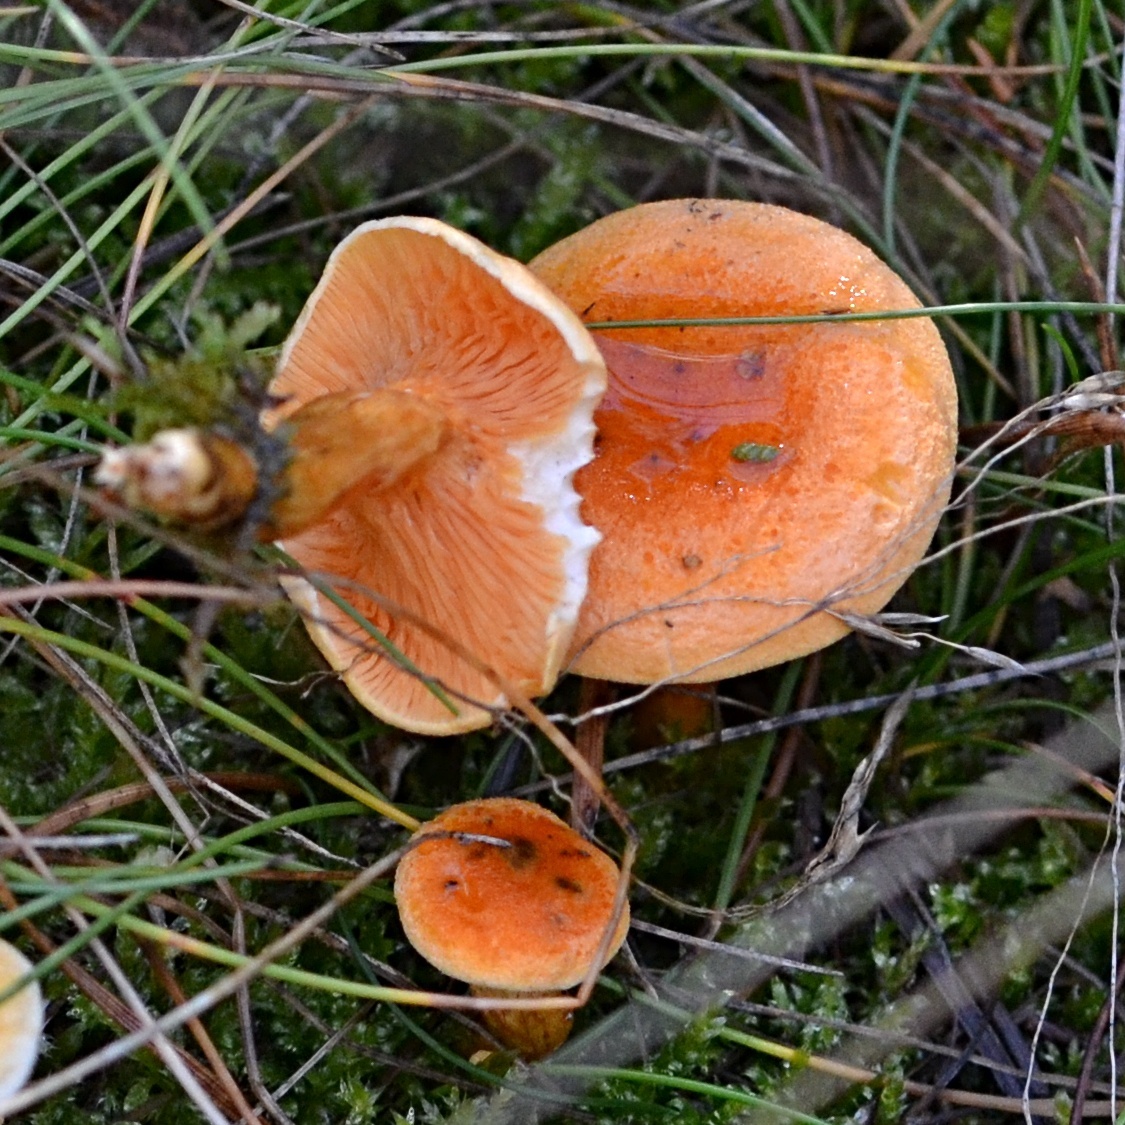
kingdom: Fungi
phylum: Basidiomycota
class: Agaricomycetes
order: Boletales
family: Hygrophoropsidaceae
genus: Hygrophoropsis
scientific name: Hygrophoropsis aurantiaca
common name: False chanterelle
